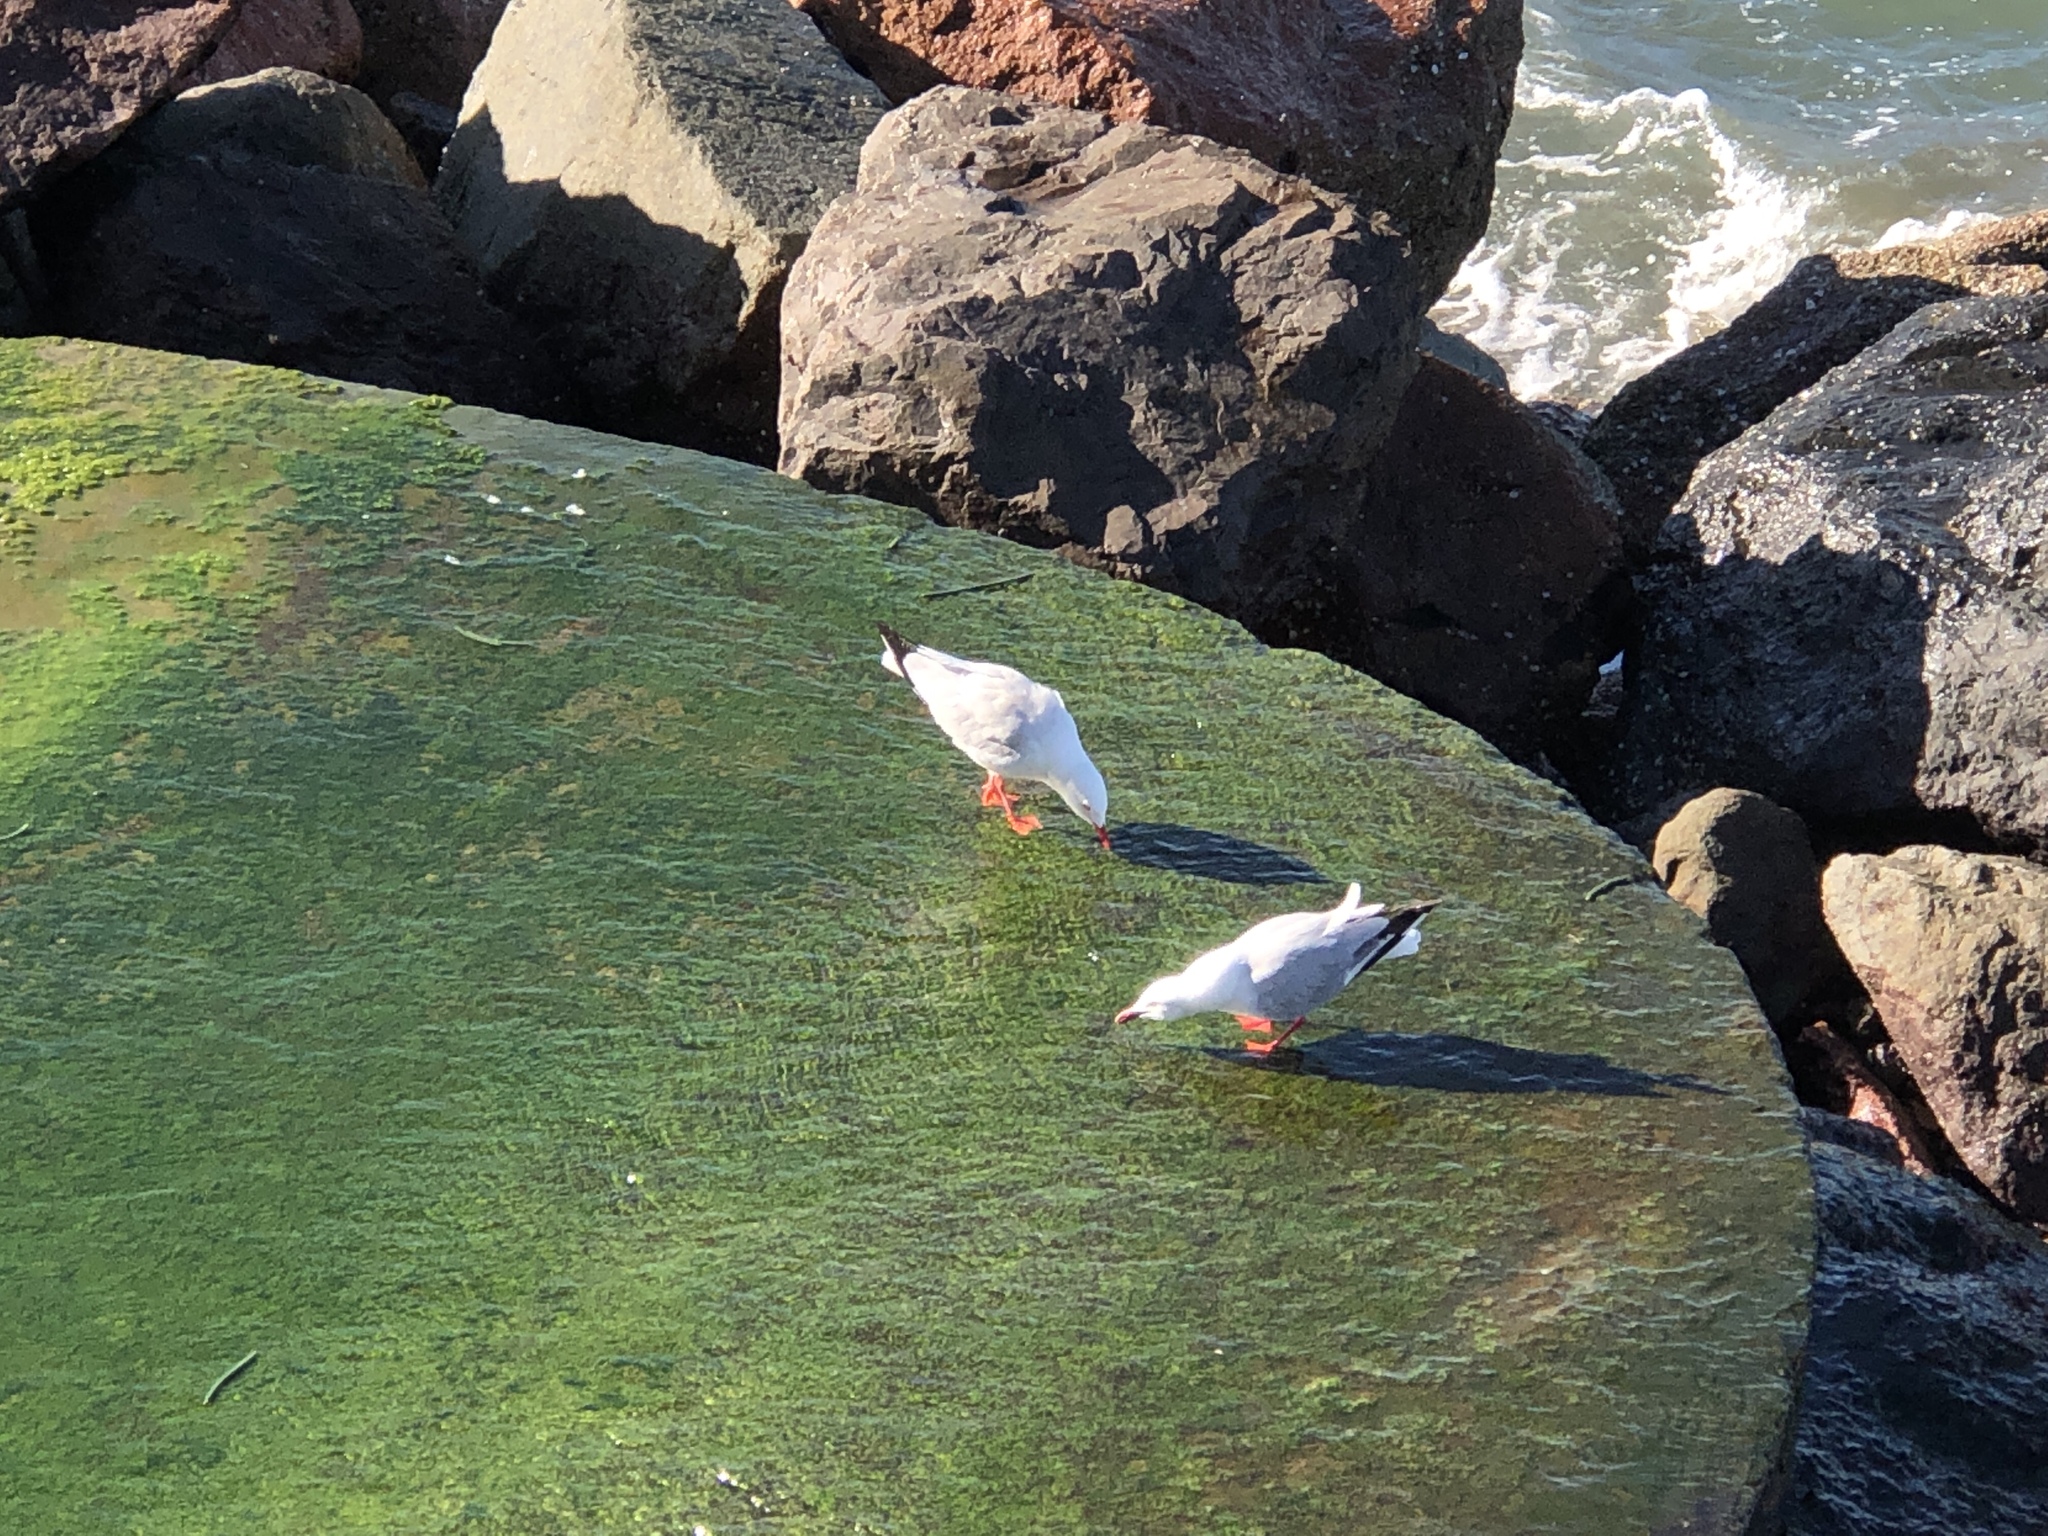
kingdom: Animalia
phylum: Chordata
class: Aves
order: Charadriiformes
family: Laridae
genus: Chroicocephalus
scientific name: Chroicocephalus novaehollandiae
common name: Silver gull
